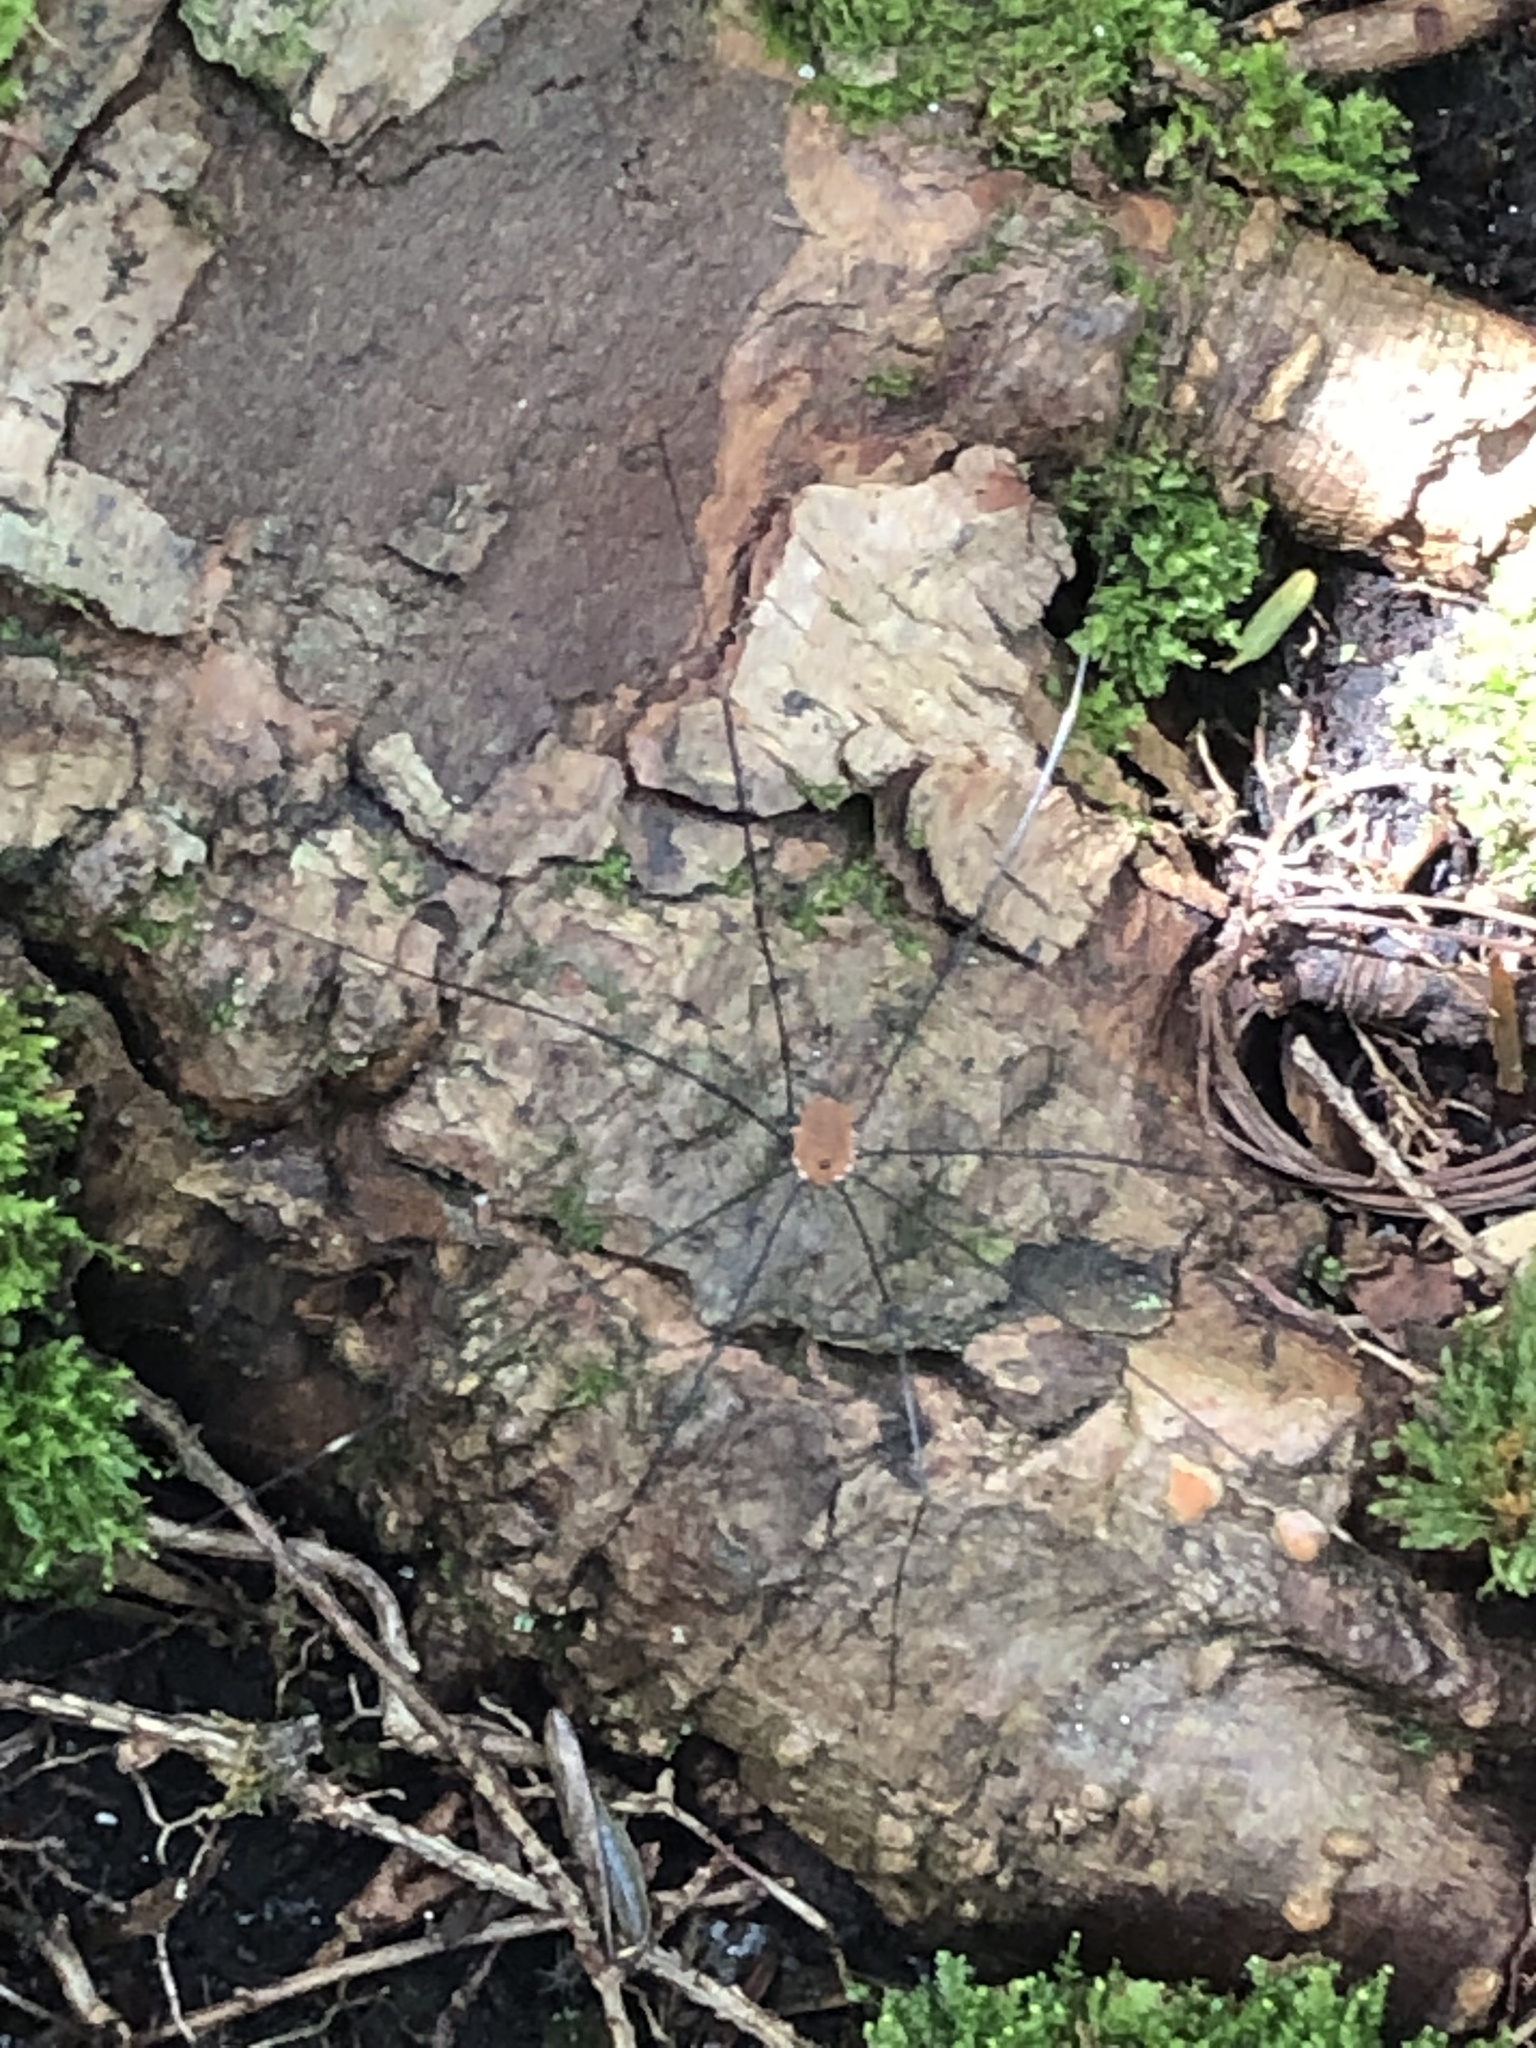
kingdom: Animalia
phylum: Arthropoda
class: Arachnida
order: Opiliones
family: Sclerosomatidae
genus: Leiobunum
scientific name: Leiobunum aldrichi
